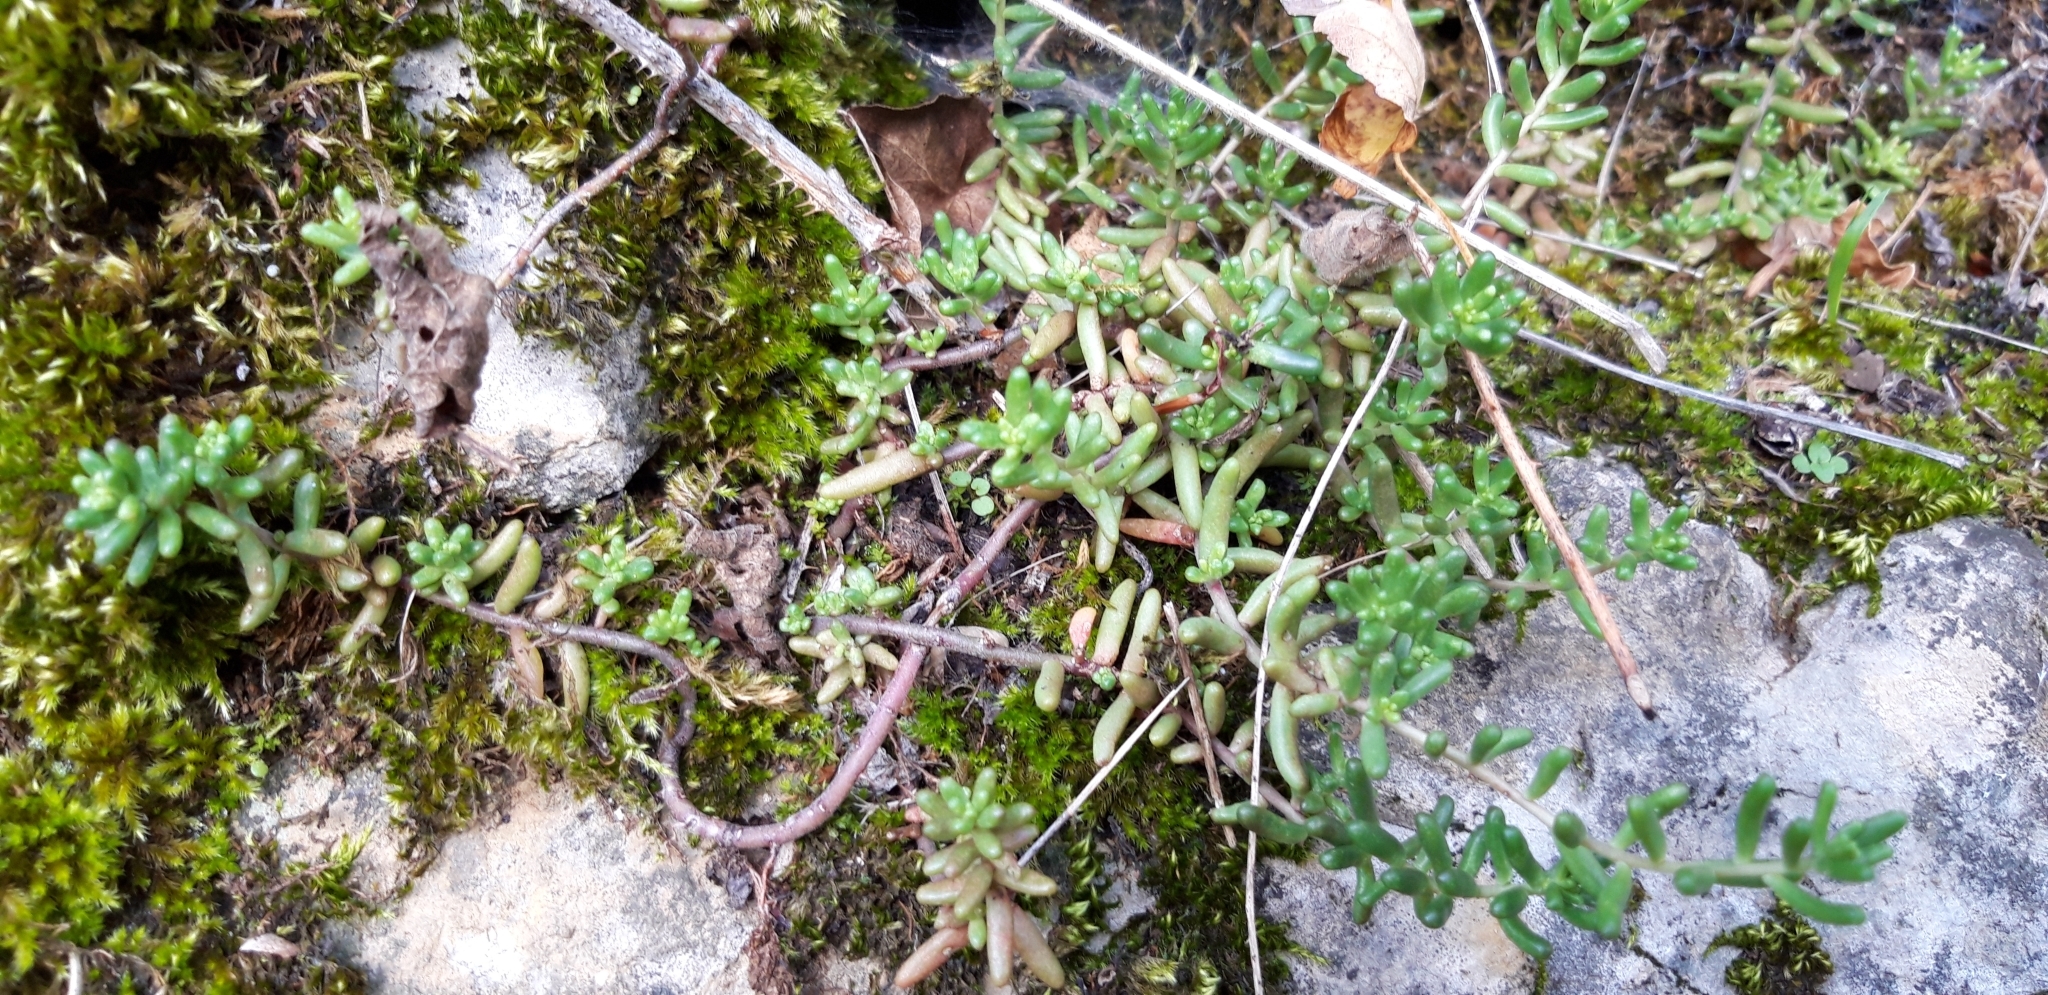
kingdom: Plantae
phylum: Tracheophyta
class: Magnoliopsida
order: Saxifragales
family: Crassulaceae
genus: Sedum
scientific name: Sedum album
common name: White stonecrop
